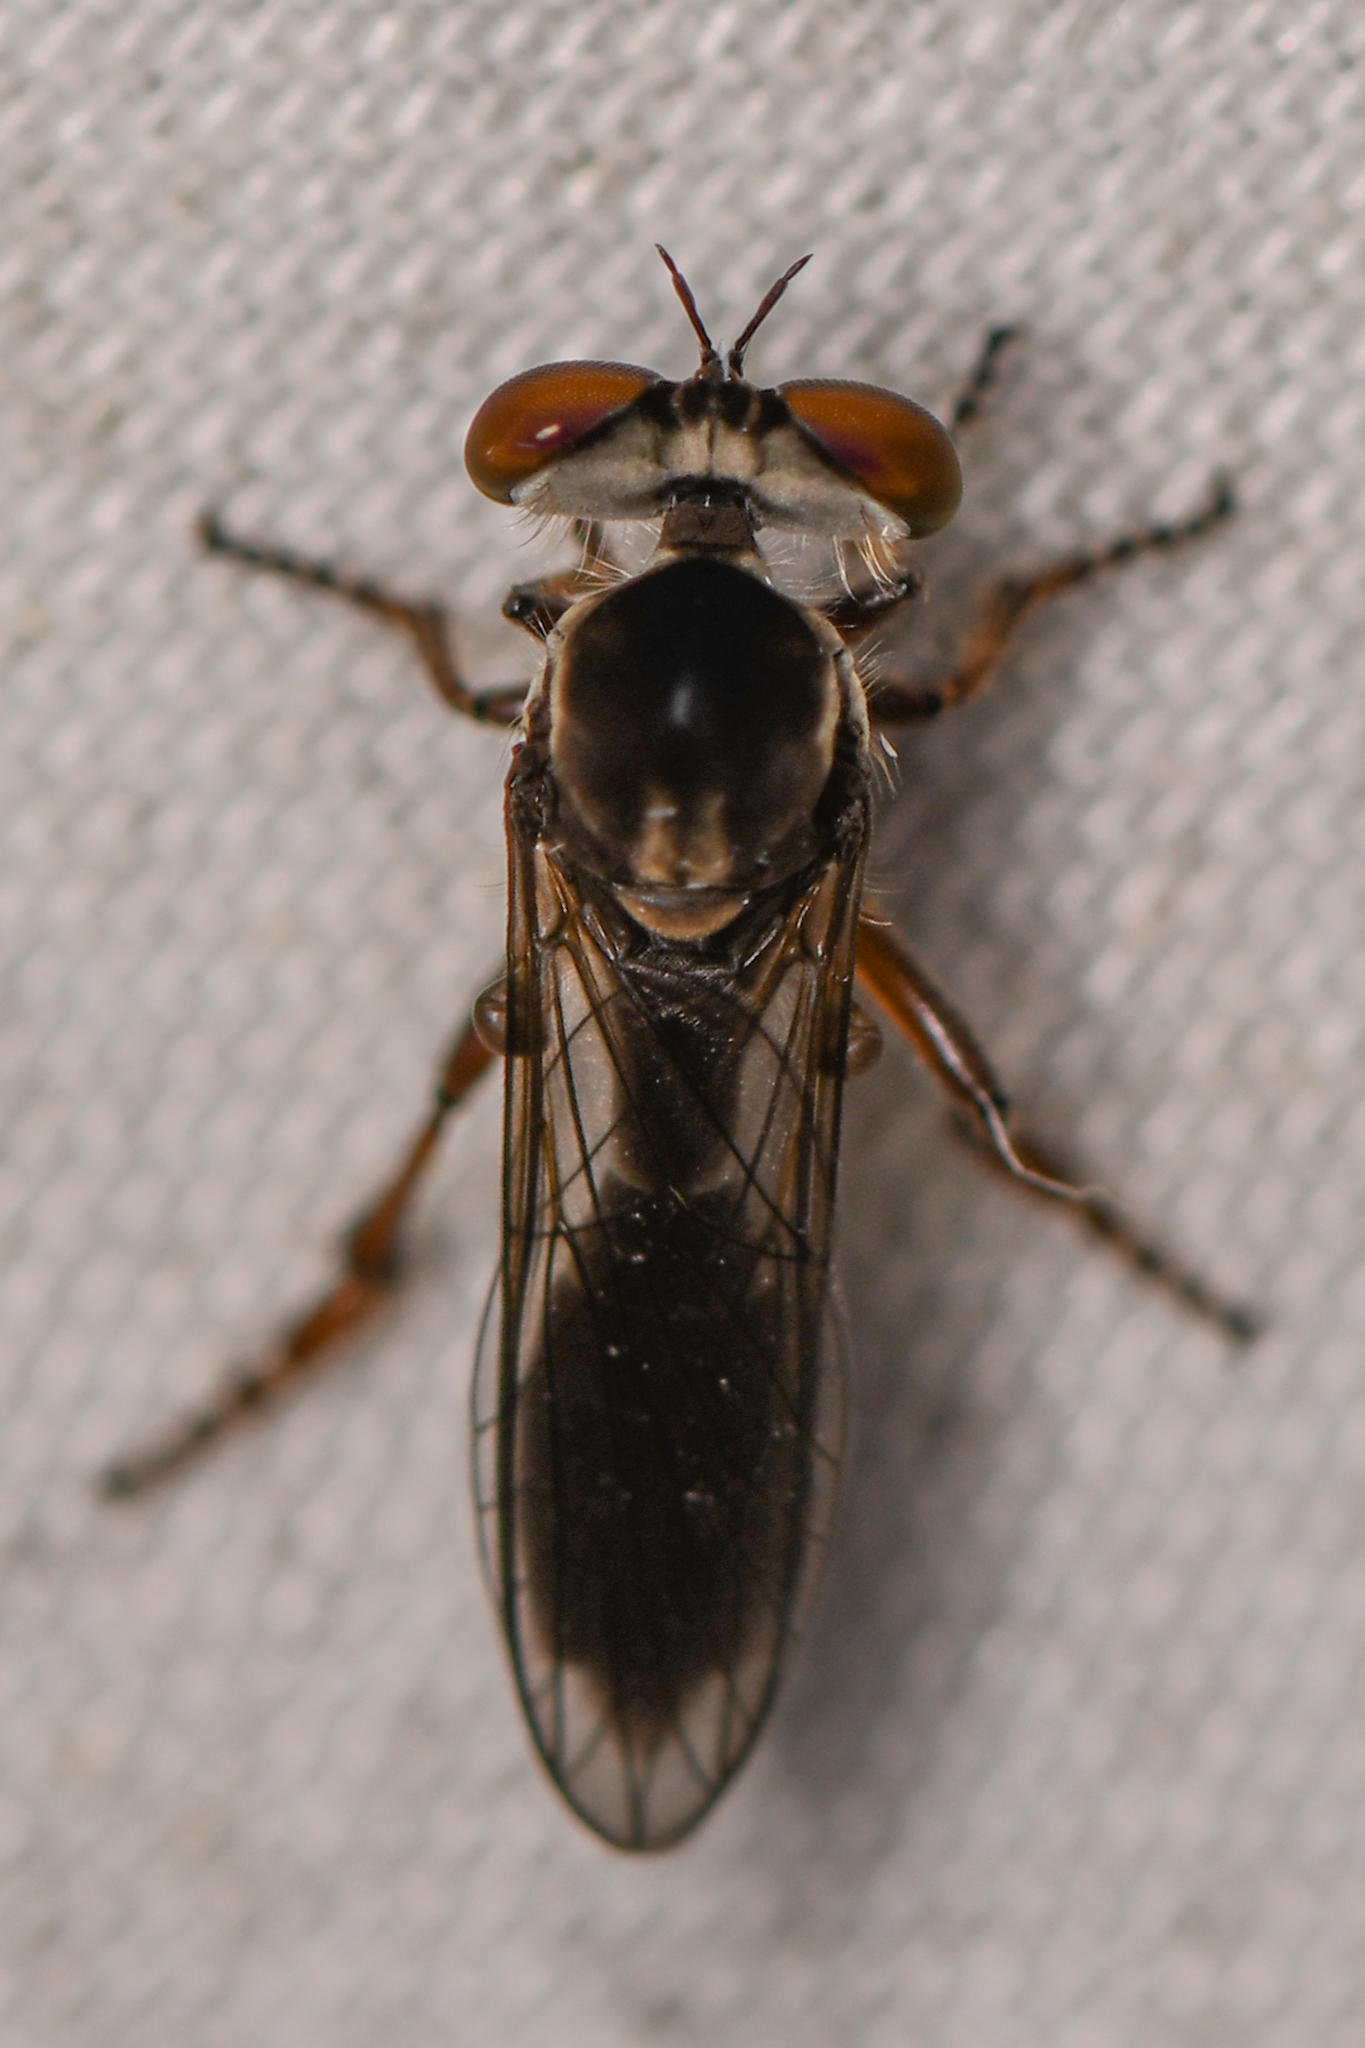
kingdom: Animalia
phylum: Arthropoda
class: Insecta
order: Diptera
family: Asilidae
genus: Holcocephala
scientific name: Holcocephala
